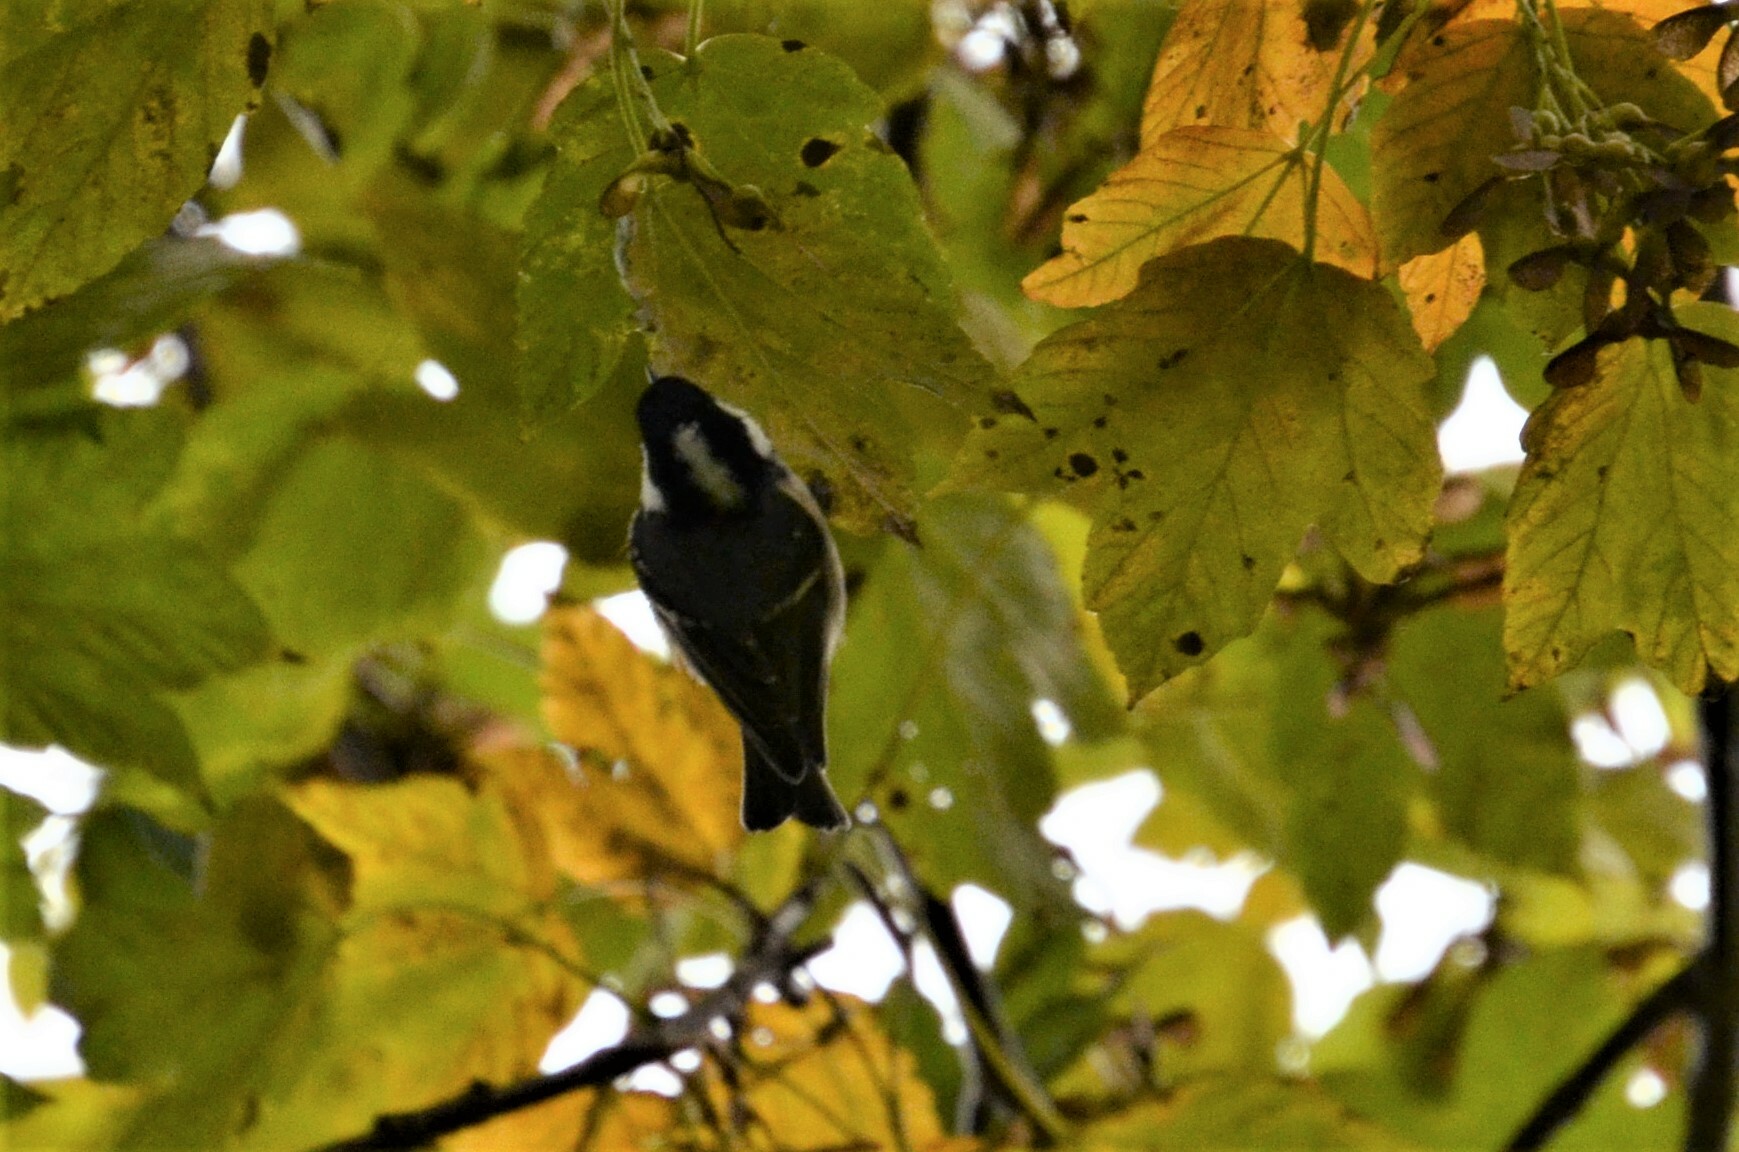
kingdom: Animalia
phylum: Chordata
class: Aves
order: Passeriformes
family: Paridae
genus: Periparus
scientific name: Periparus ater
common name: Coal tit
